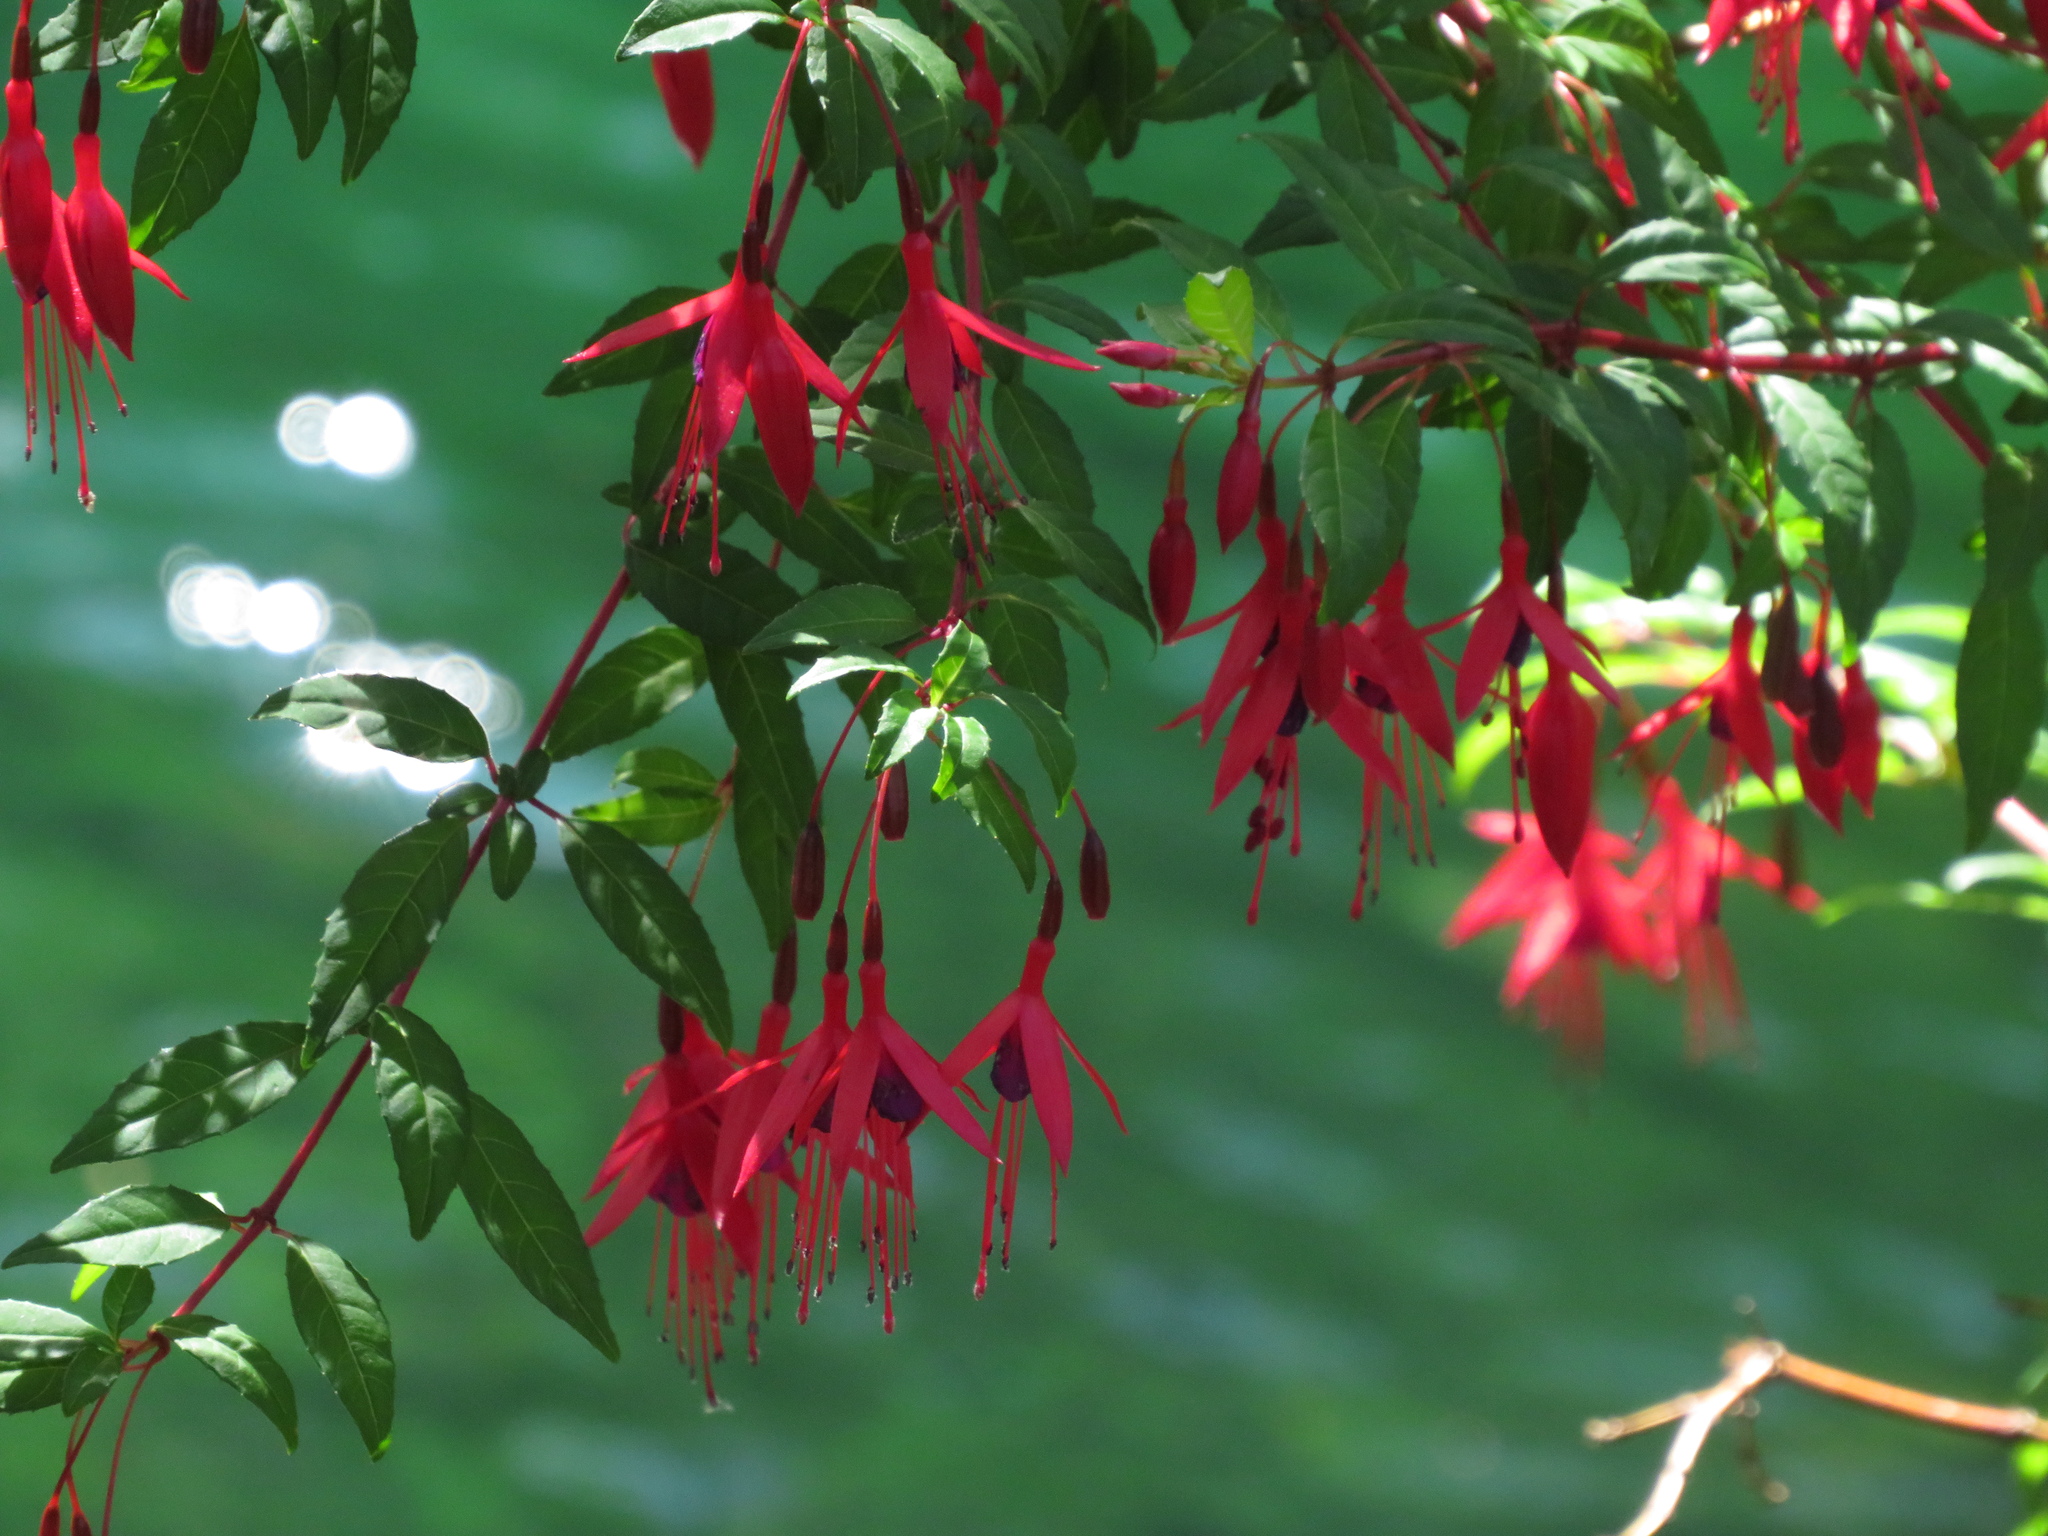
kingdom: Plantae
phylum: Tracheophyta
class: Magnoliopsida
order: Myrtales
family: Onagraceae
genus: Fuchsia
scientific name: Fuchsia magellanica
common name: Hardy fuchsia
